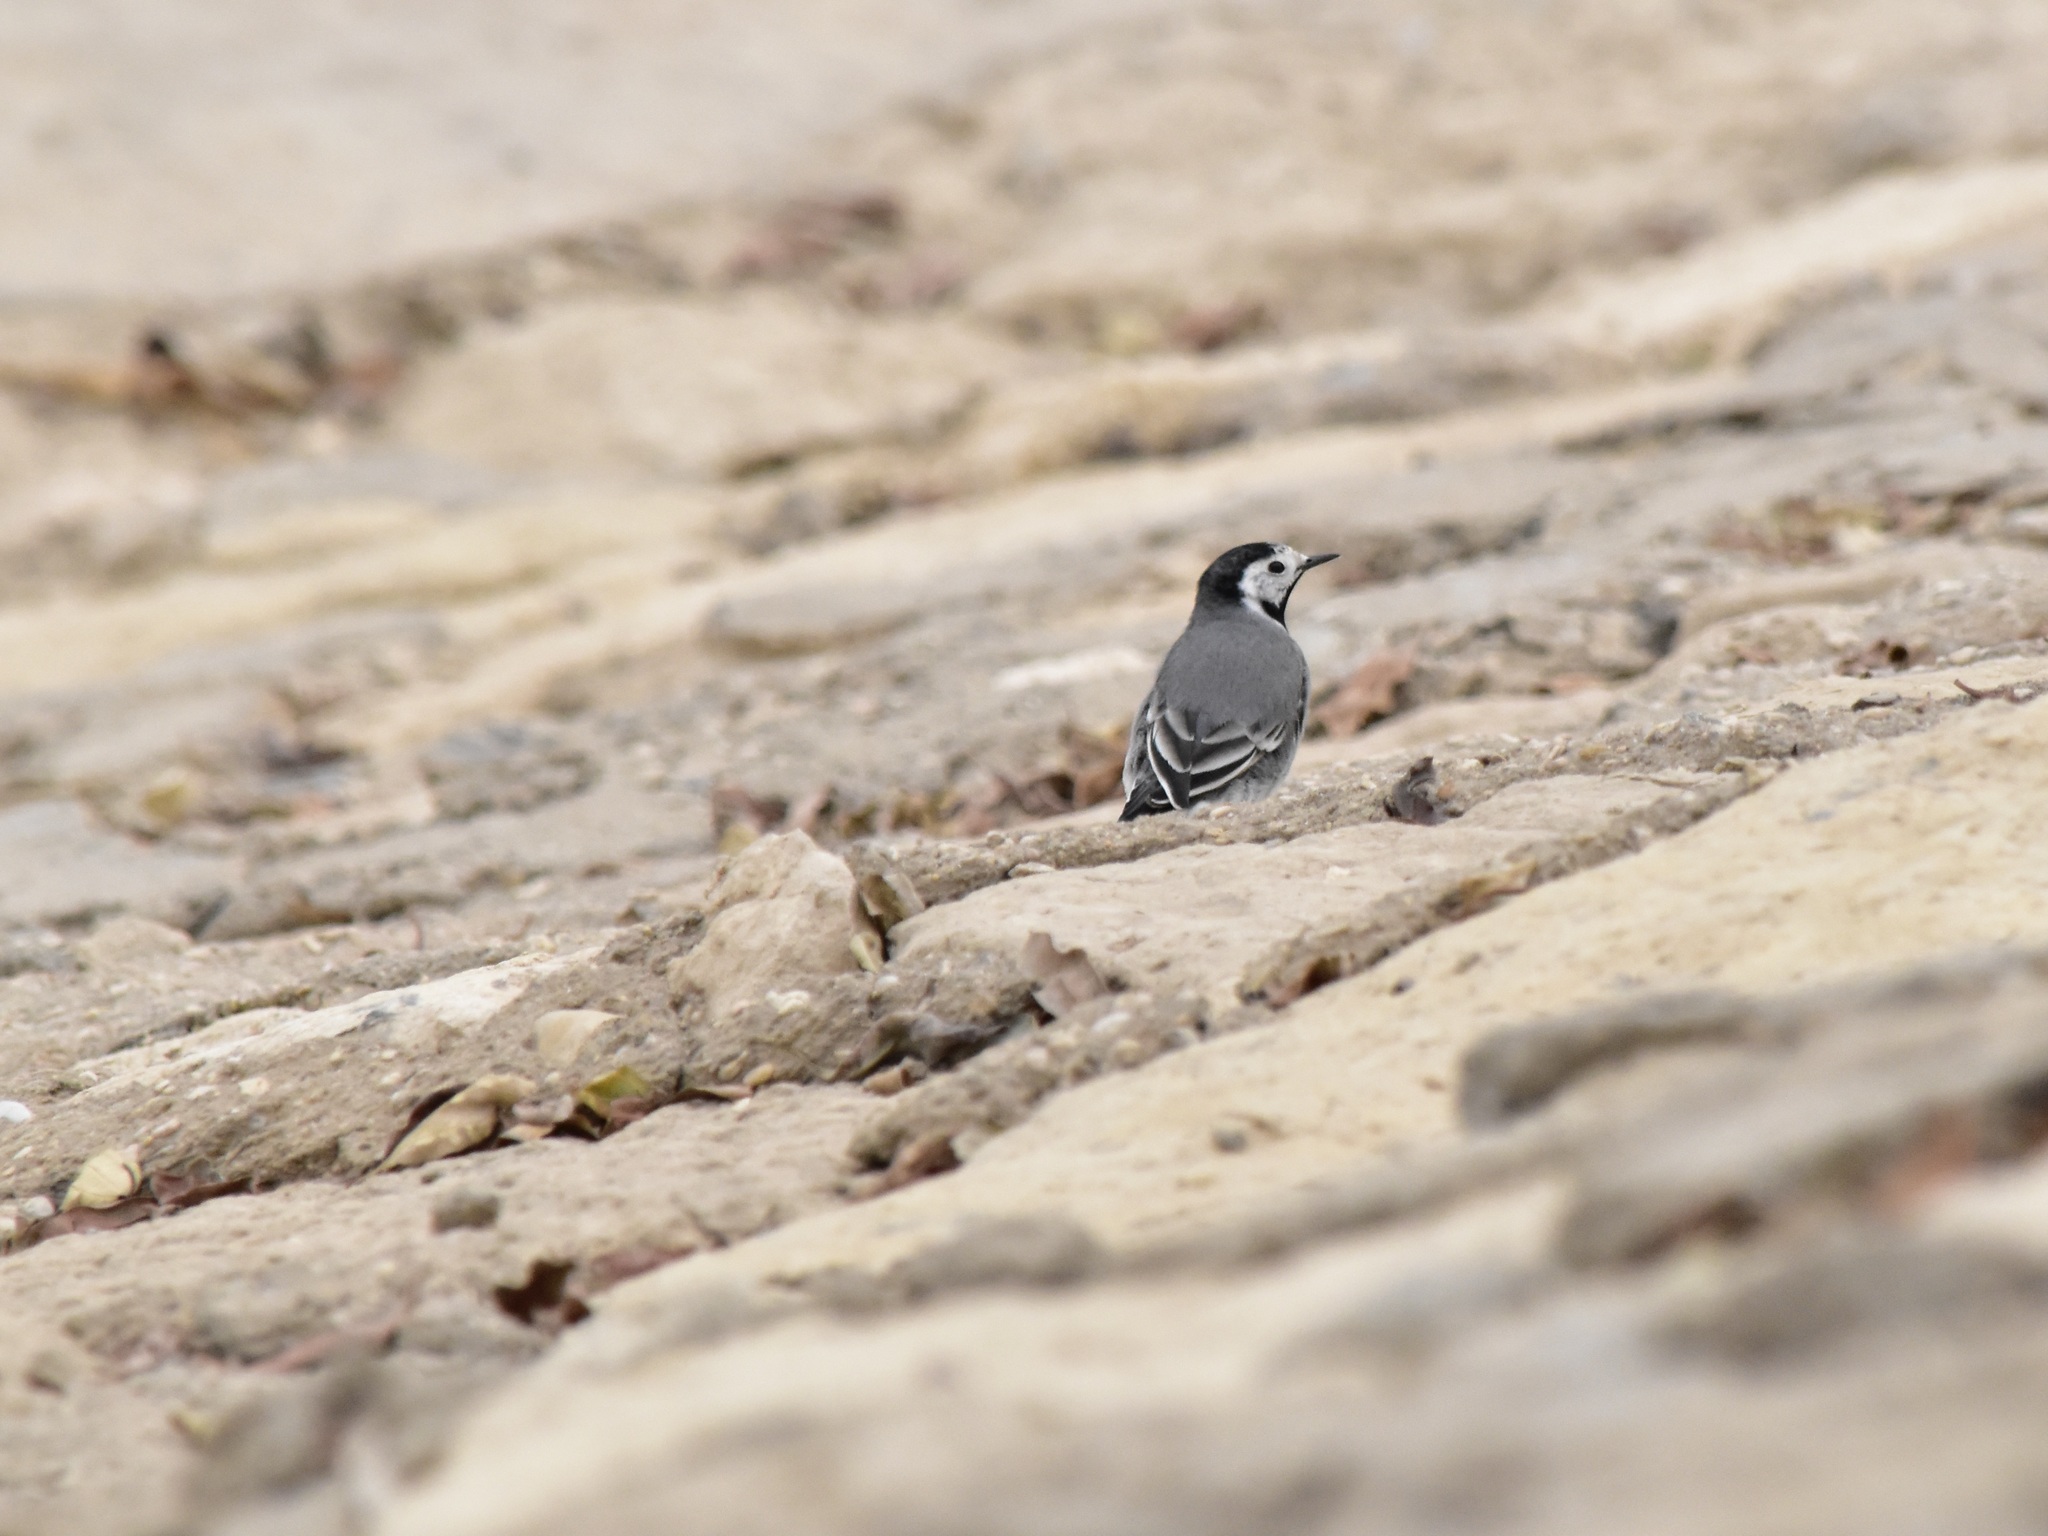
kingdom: Animalia
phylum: Chordata
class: Aves
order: Passeriformes
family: Motacillidae
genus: Motacilla
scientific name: Motacilla alba
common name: White wagtail
